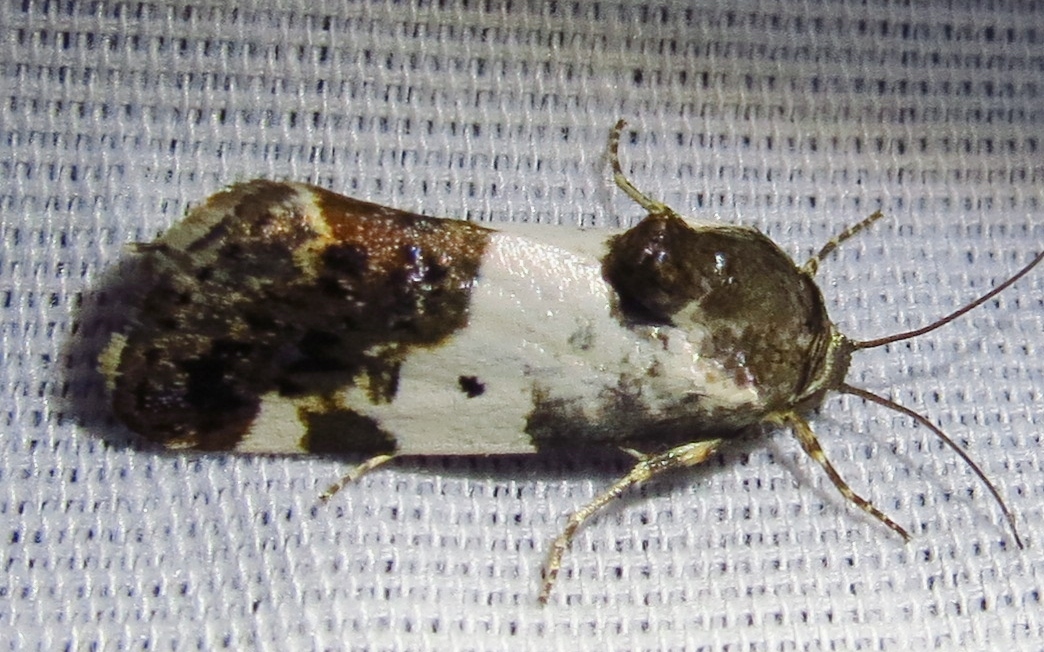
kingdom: Animalia
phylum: Arthropoda
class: Insecta
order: Lepidoptera
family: Noctuidae
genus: Acontia
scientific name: Acontia Tarache abdominalis
